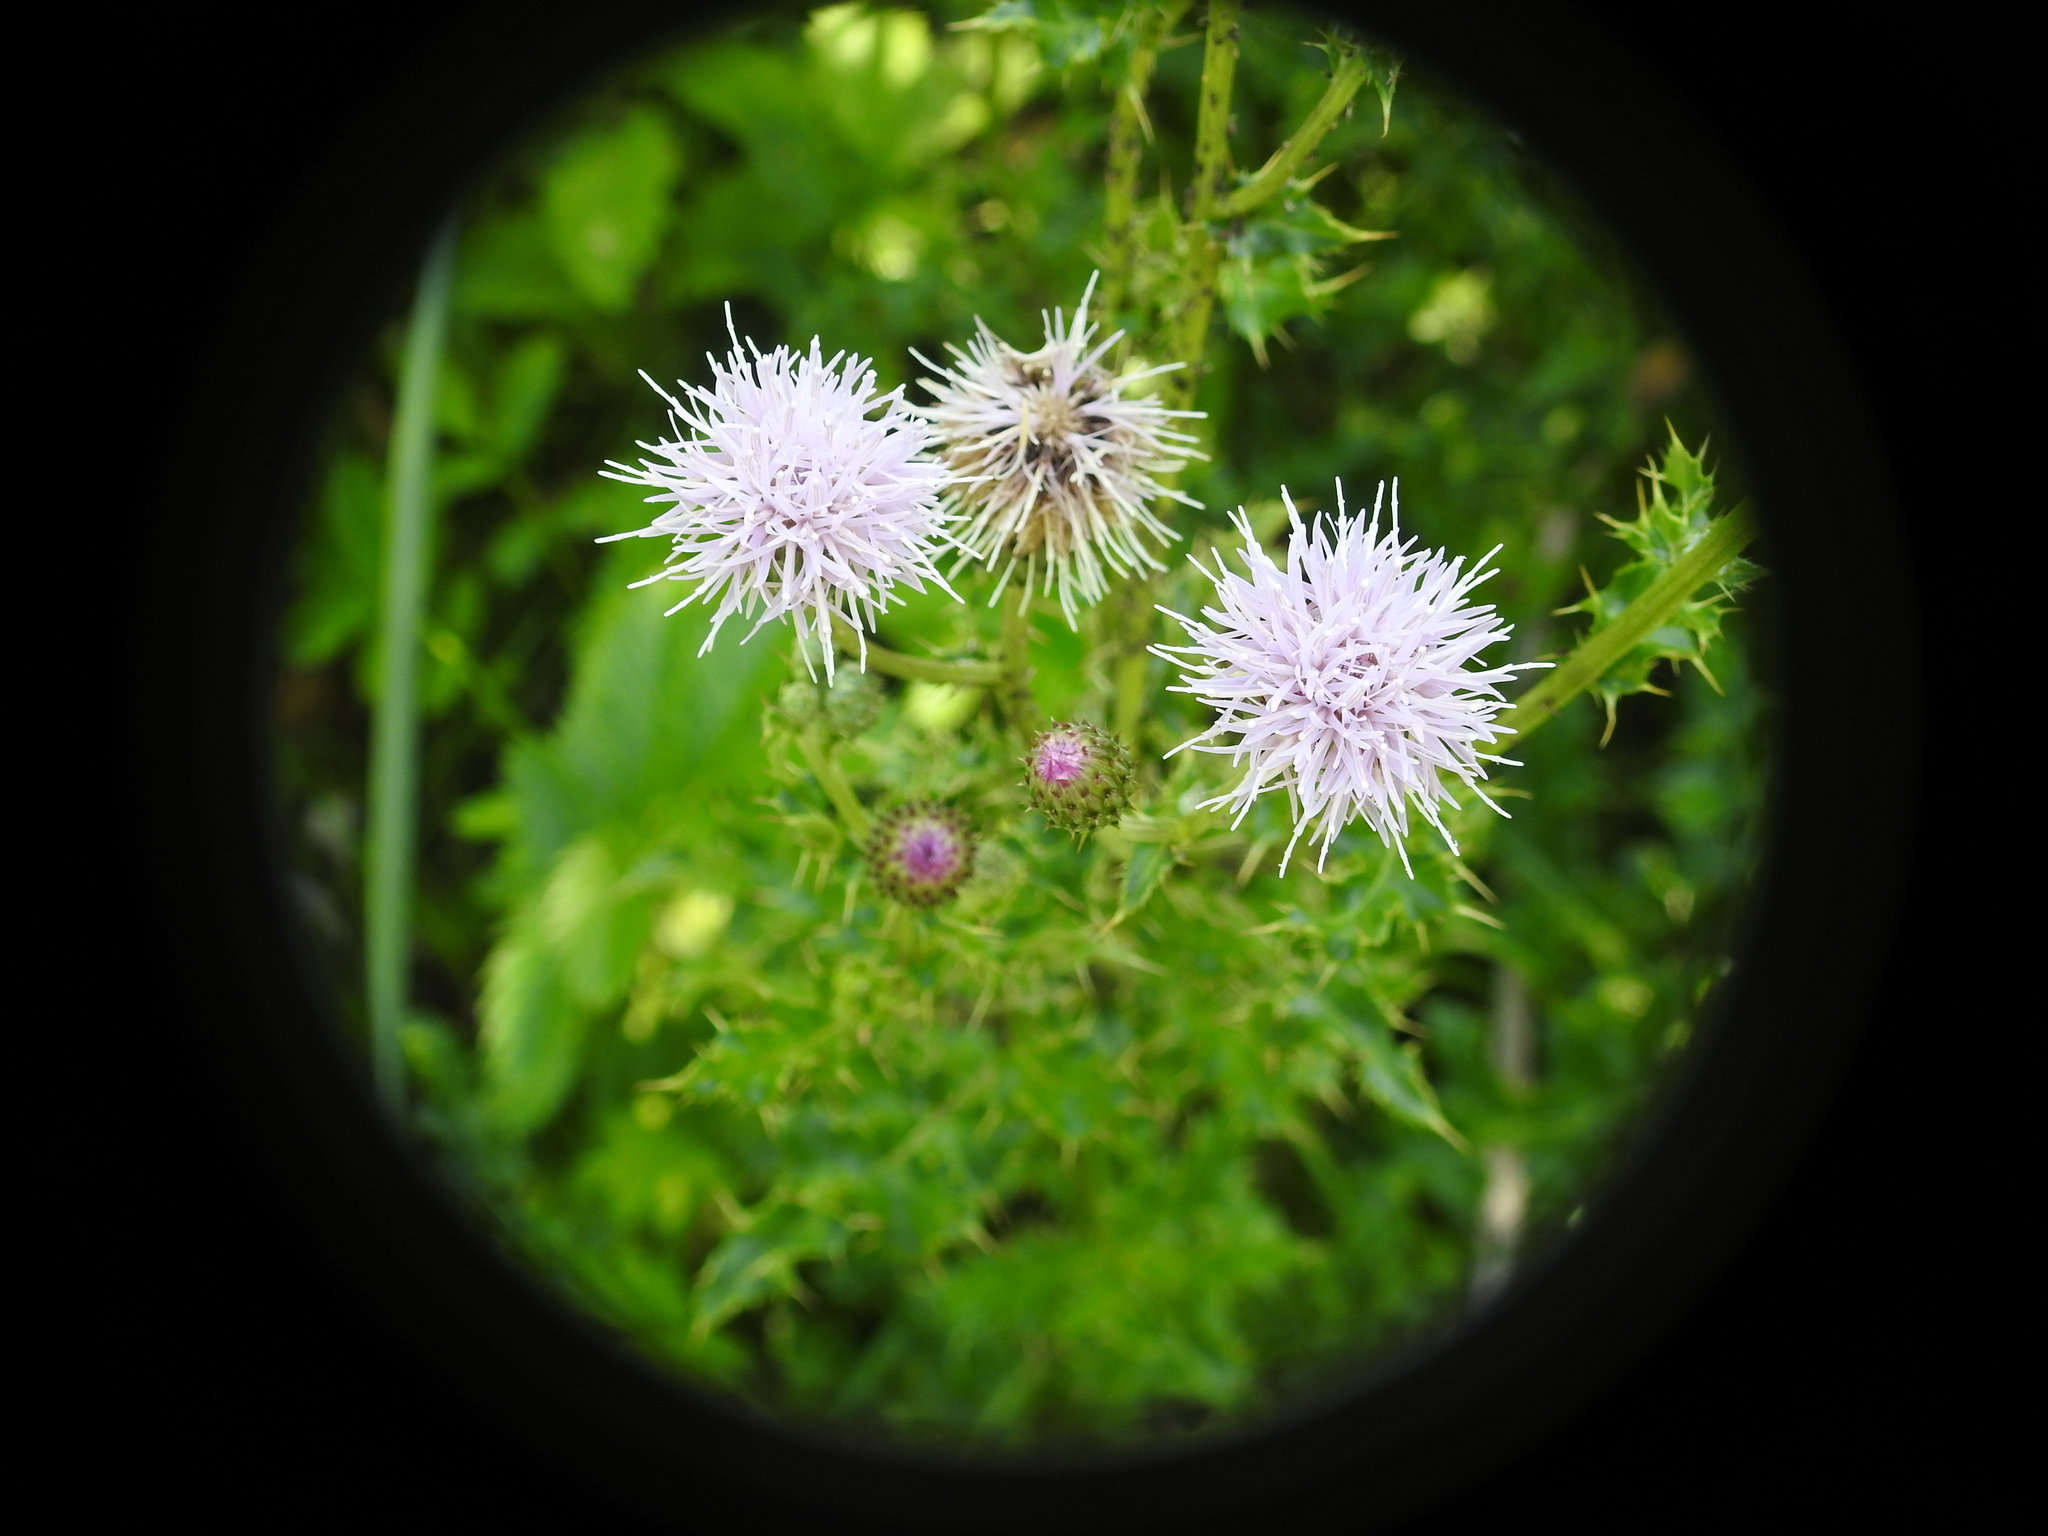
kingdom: Plantae
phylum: Tracheophyta
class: Magnoliopsida
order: Asterales
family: Asteraceae
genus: Cirsium
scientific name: Cirsium arvense
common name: Creeping thistle
